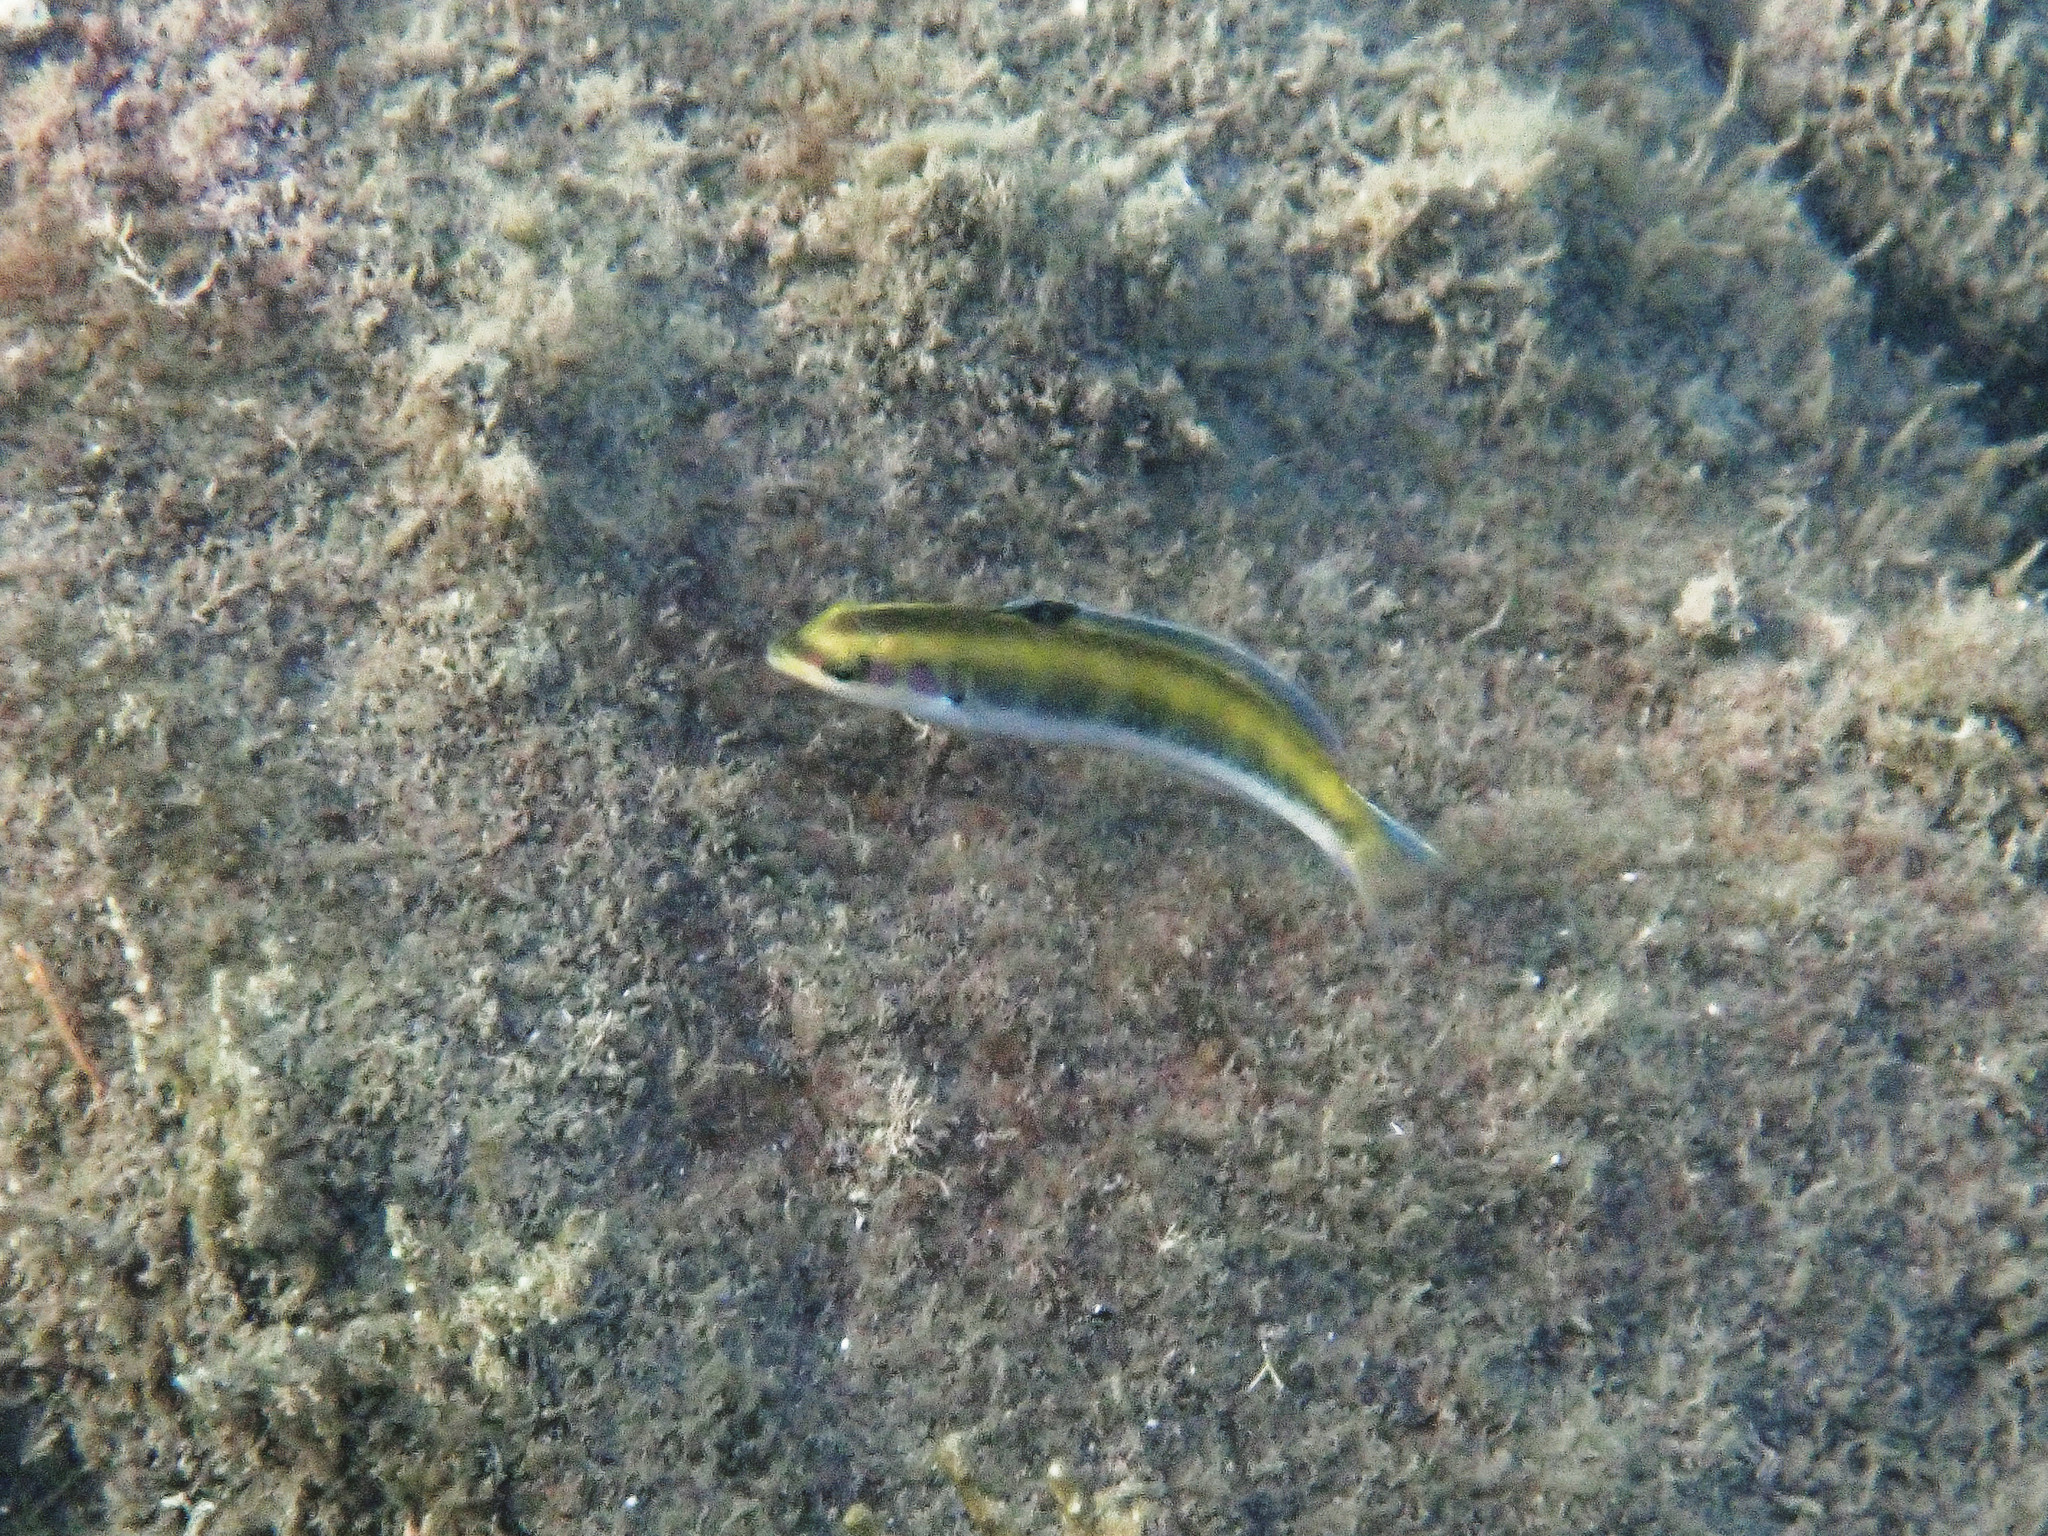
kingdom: Animalia
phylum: Chordata
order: Perciformes
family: Labridae
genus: Thalassoma
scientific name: Thalassoma bifasciatum
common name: Bluehead wrasse
